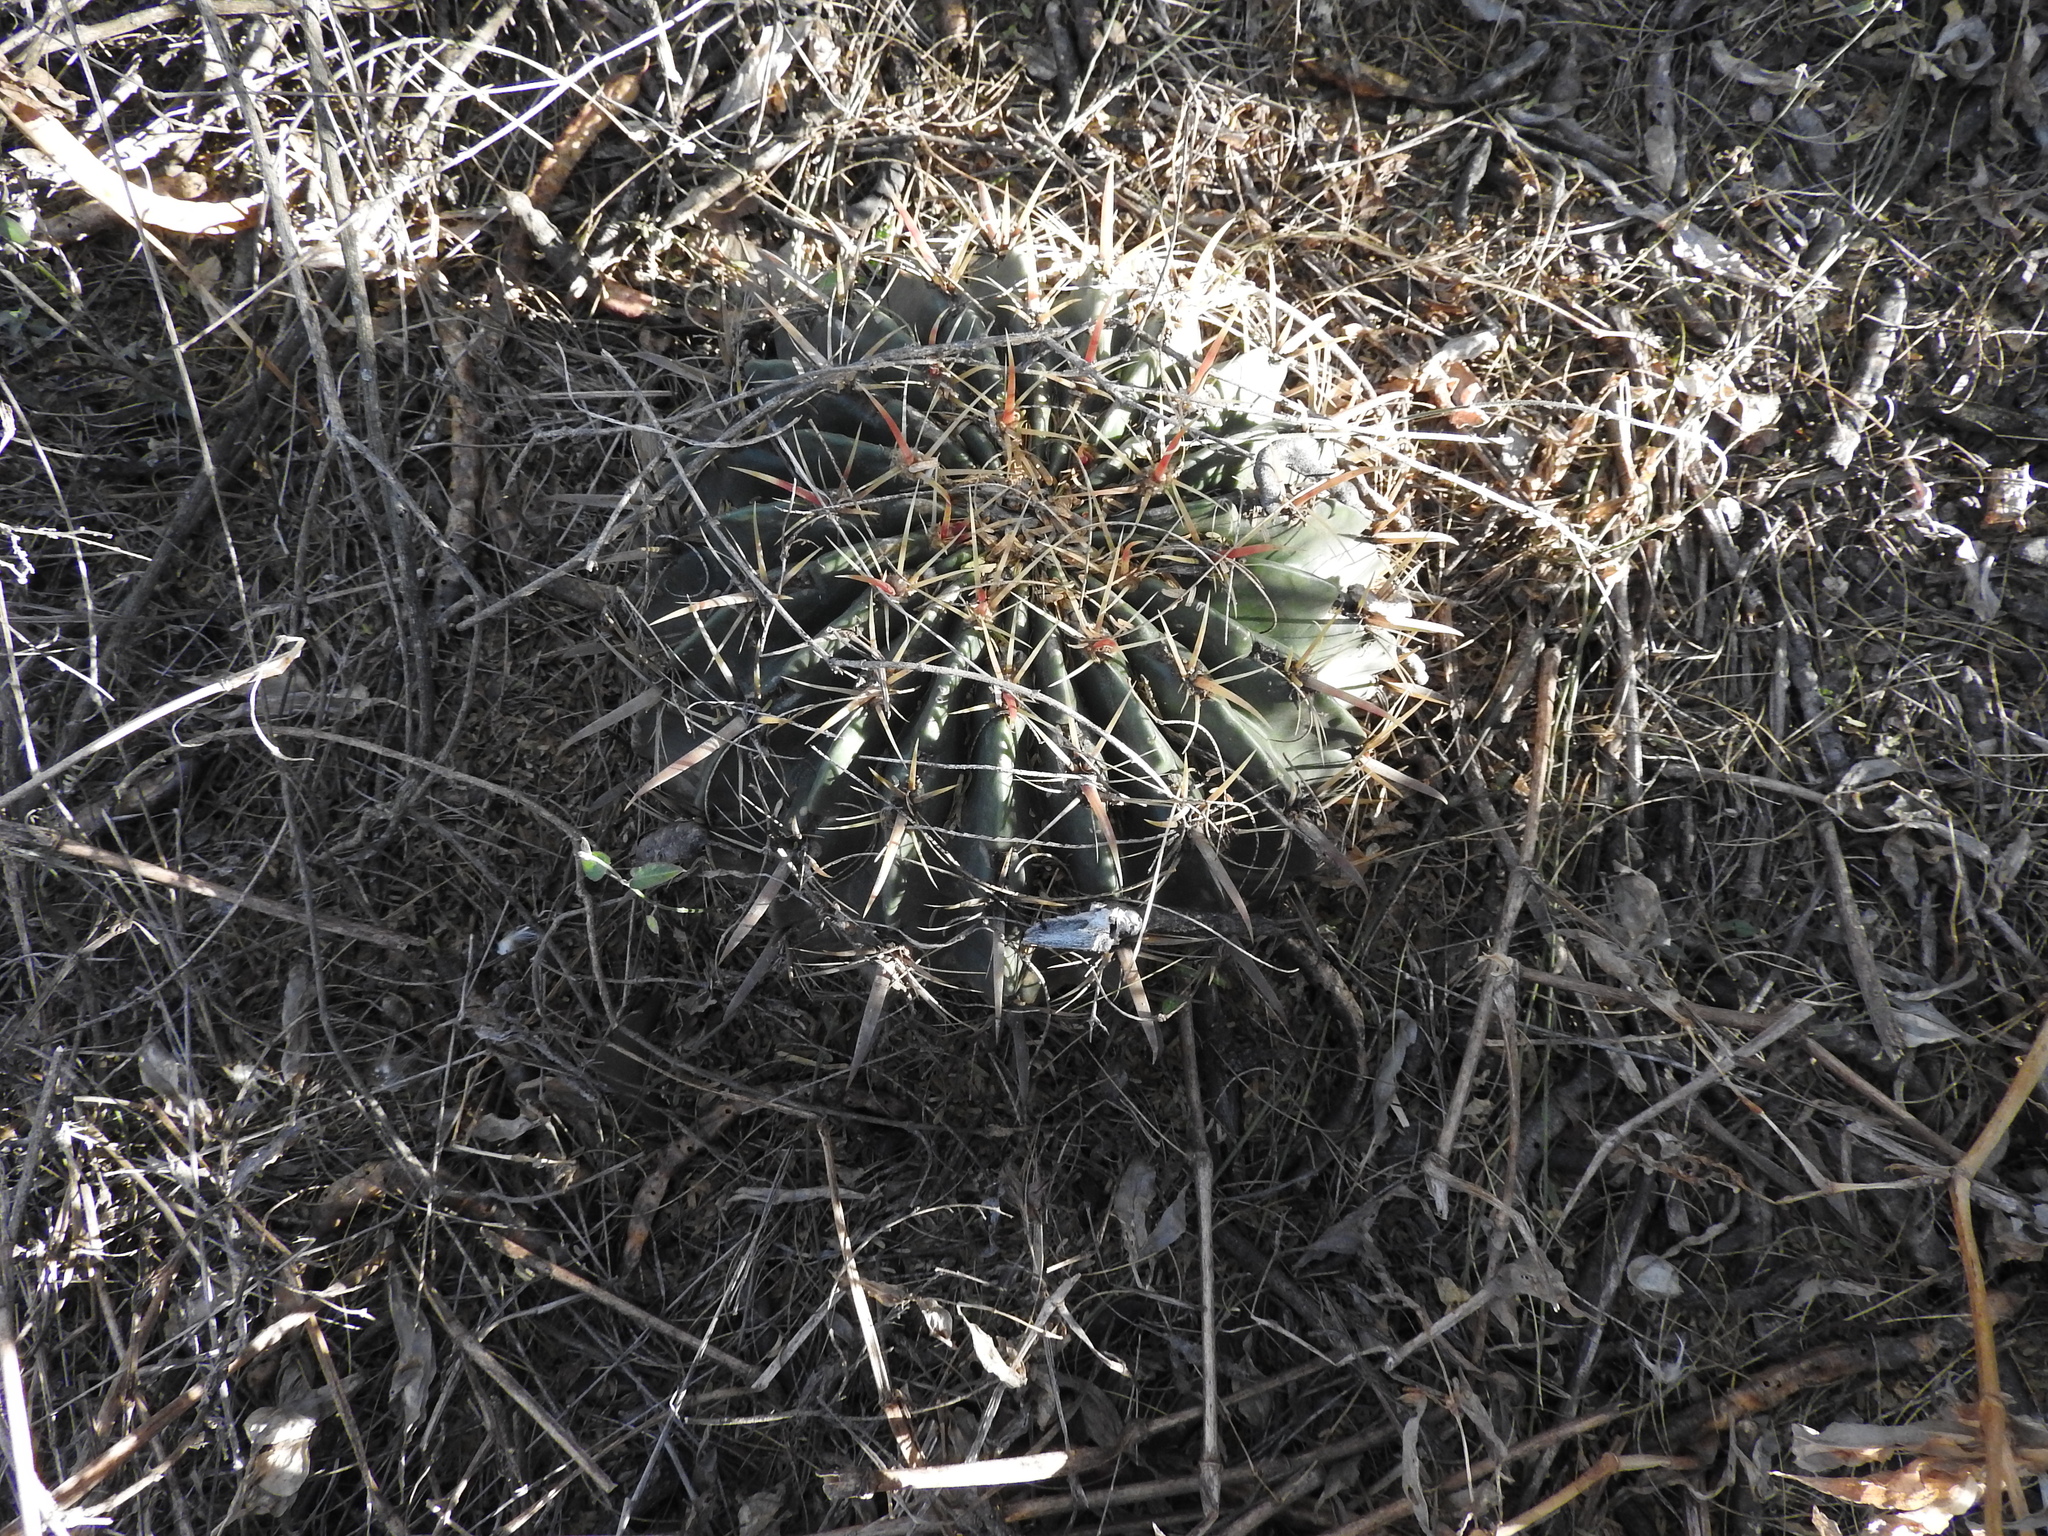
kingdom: Plantae
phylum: Tracheophyta
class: Magnoliopsida
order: Caryophyllales
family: Cactaceae
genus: Ferocactus
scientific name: Ferocactus latispinus
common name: Devil's-tongue cactus
